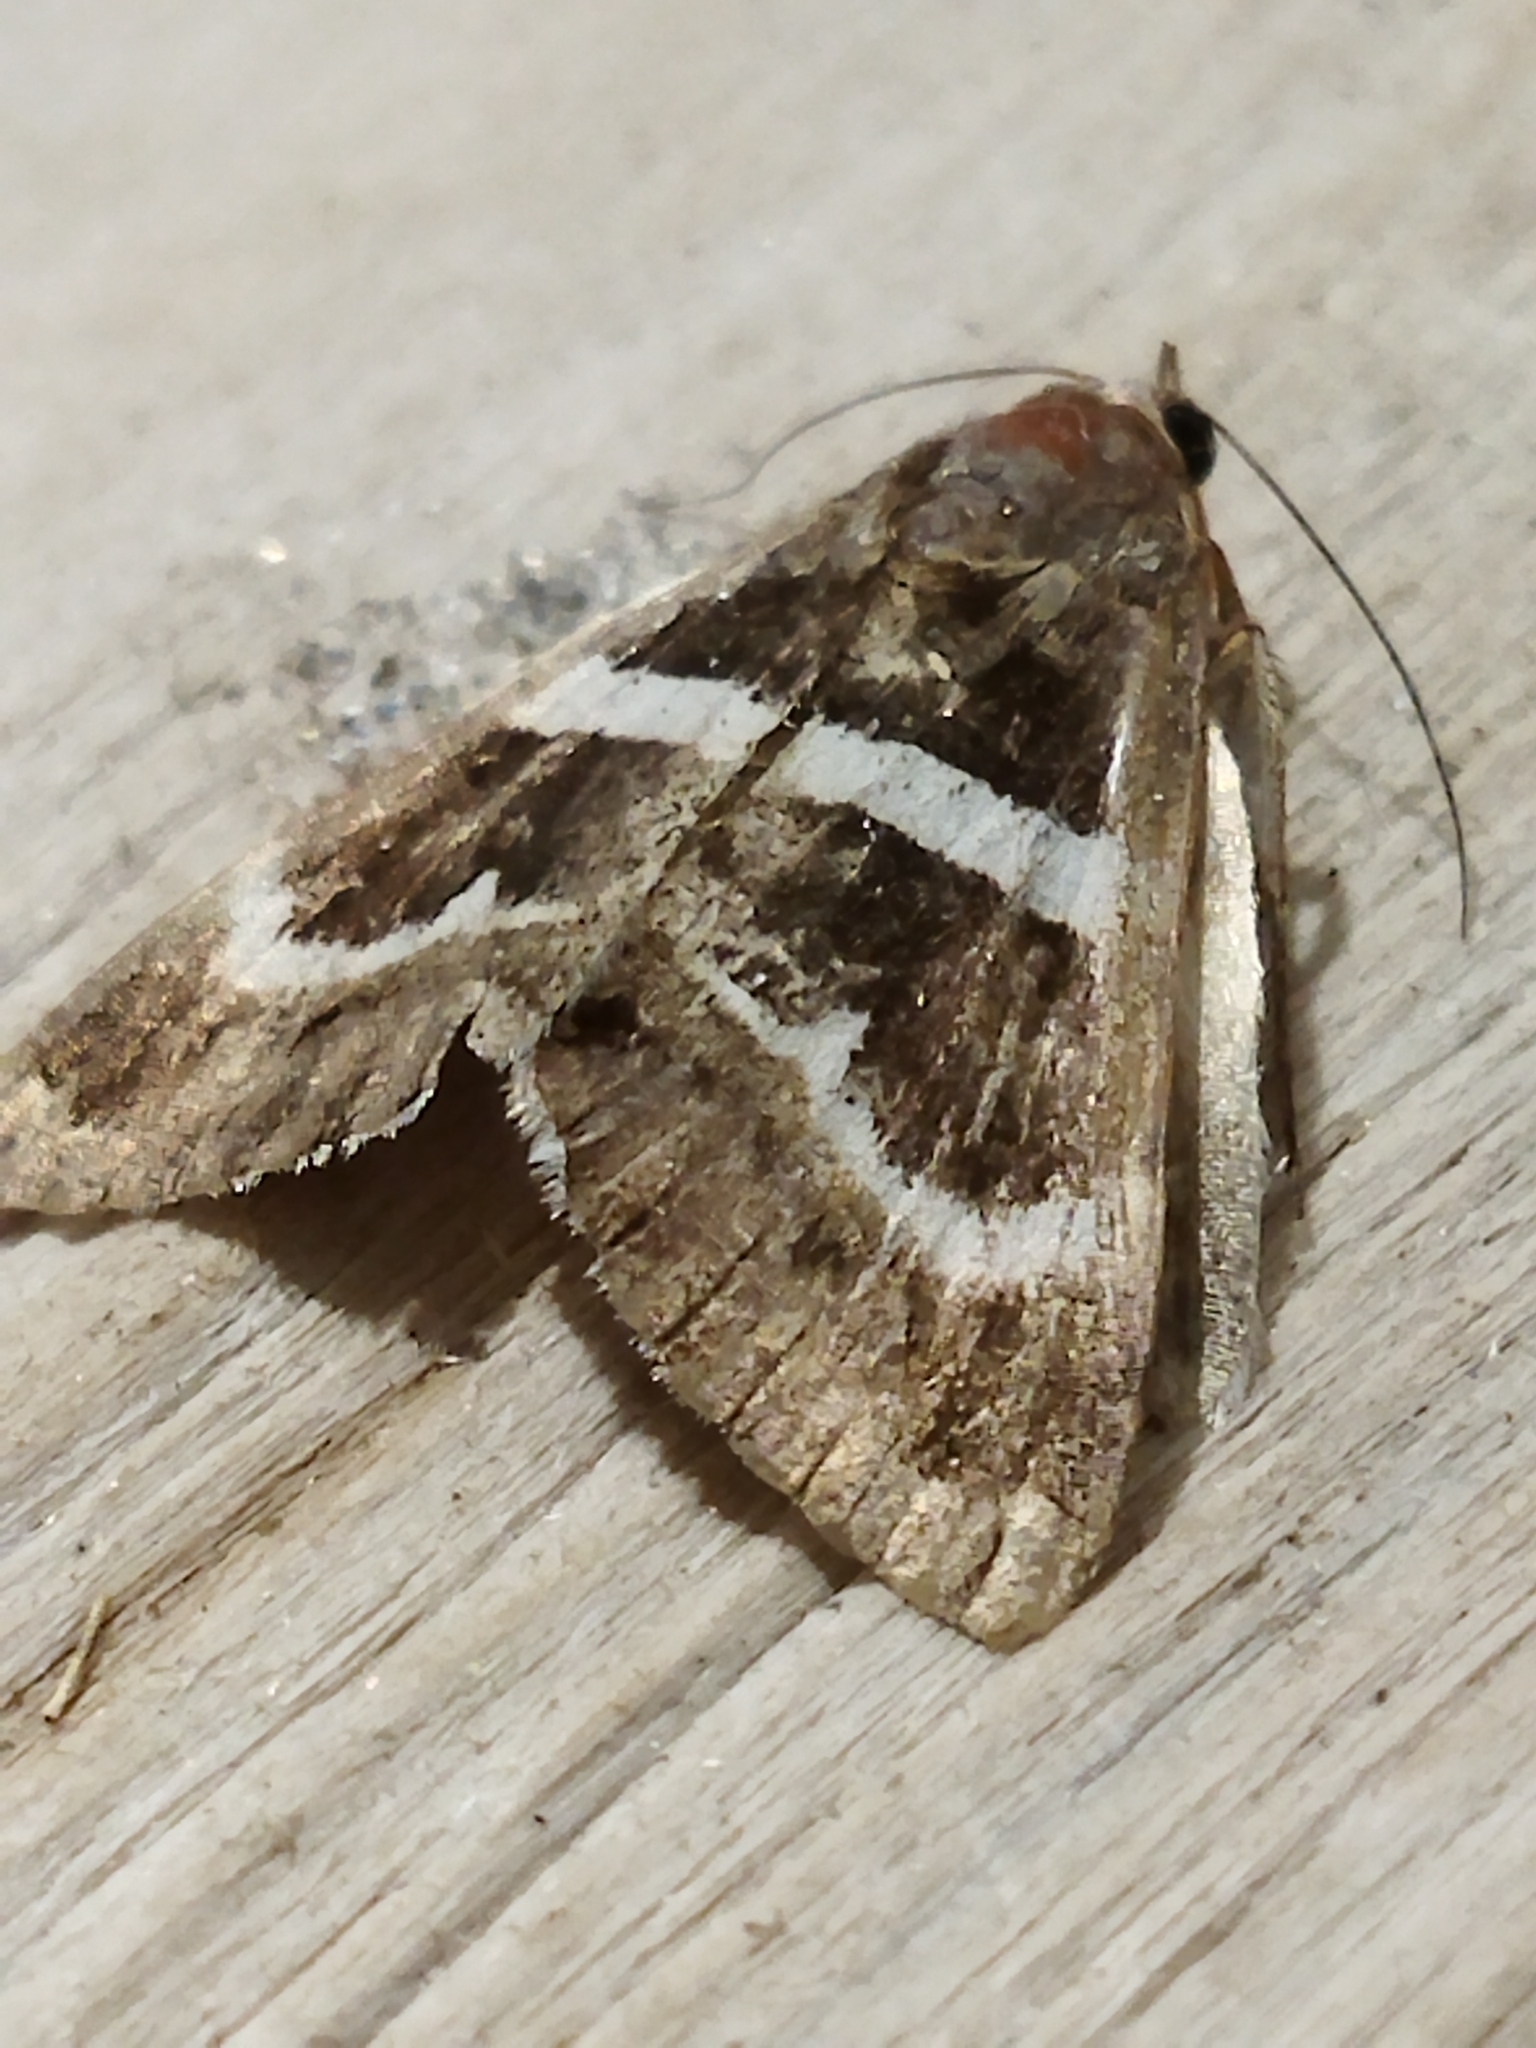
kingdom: Animalia
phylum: Arthropoda
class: Insecta
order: Lepidoptera
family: Erebidae
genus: Grammodes
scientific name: Grammodes stolida
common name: Geometrician
